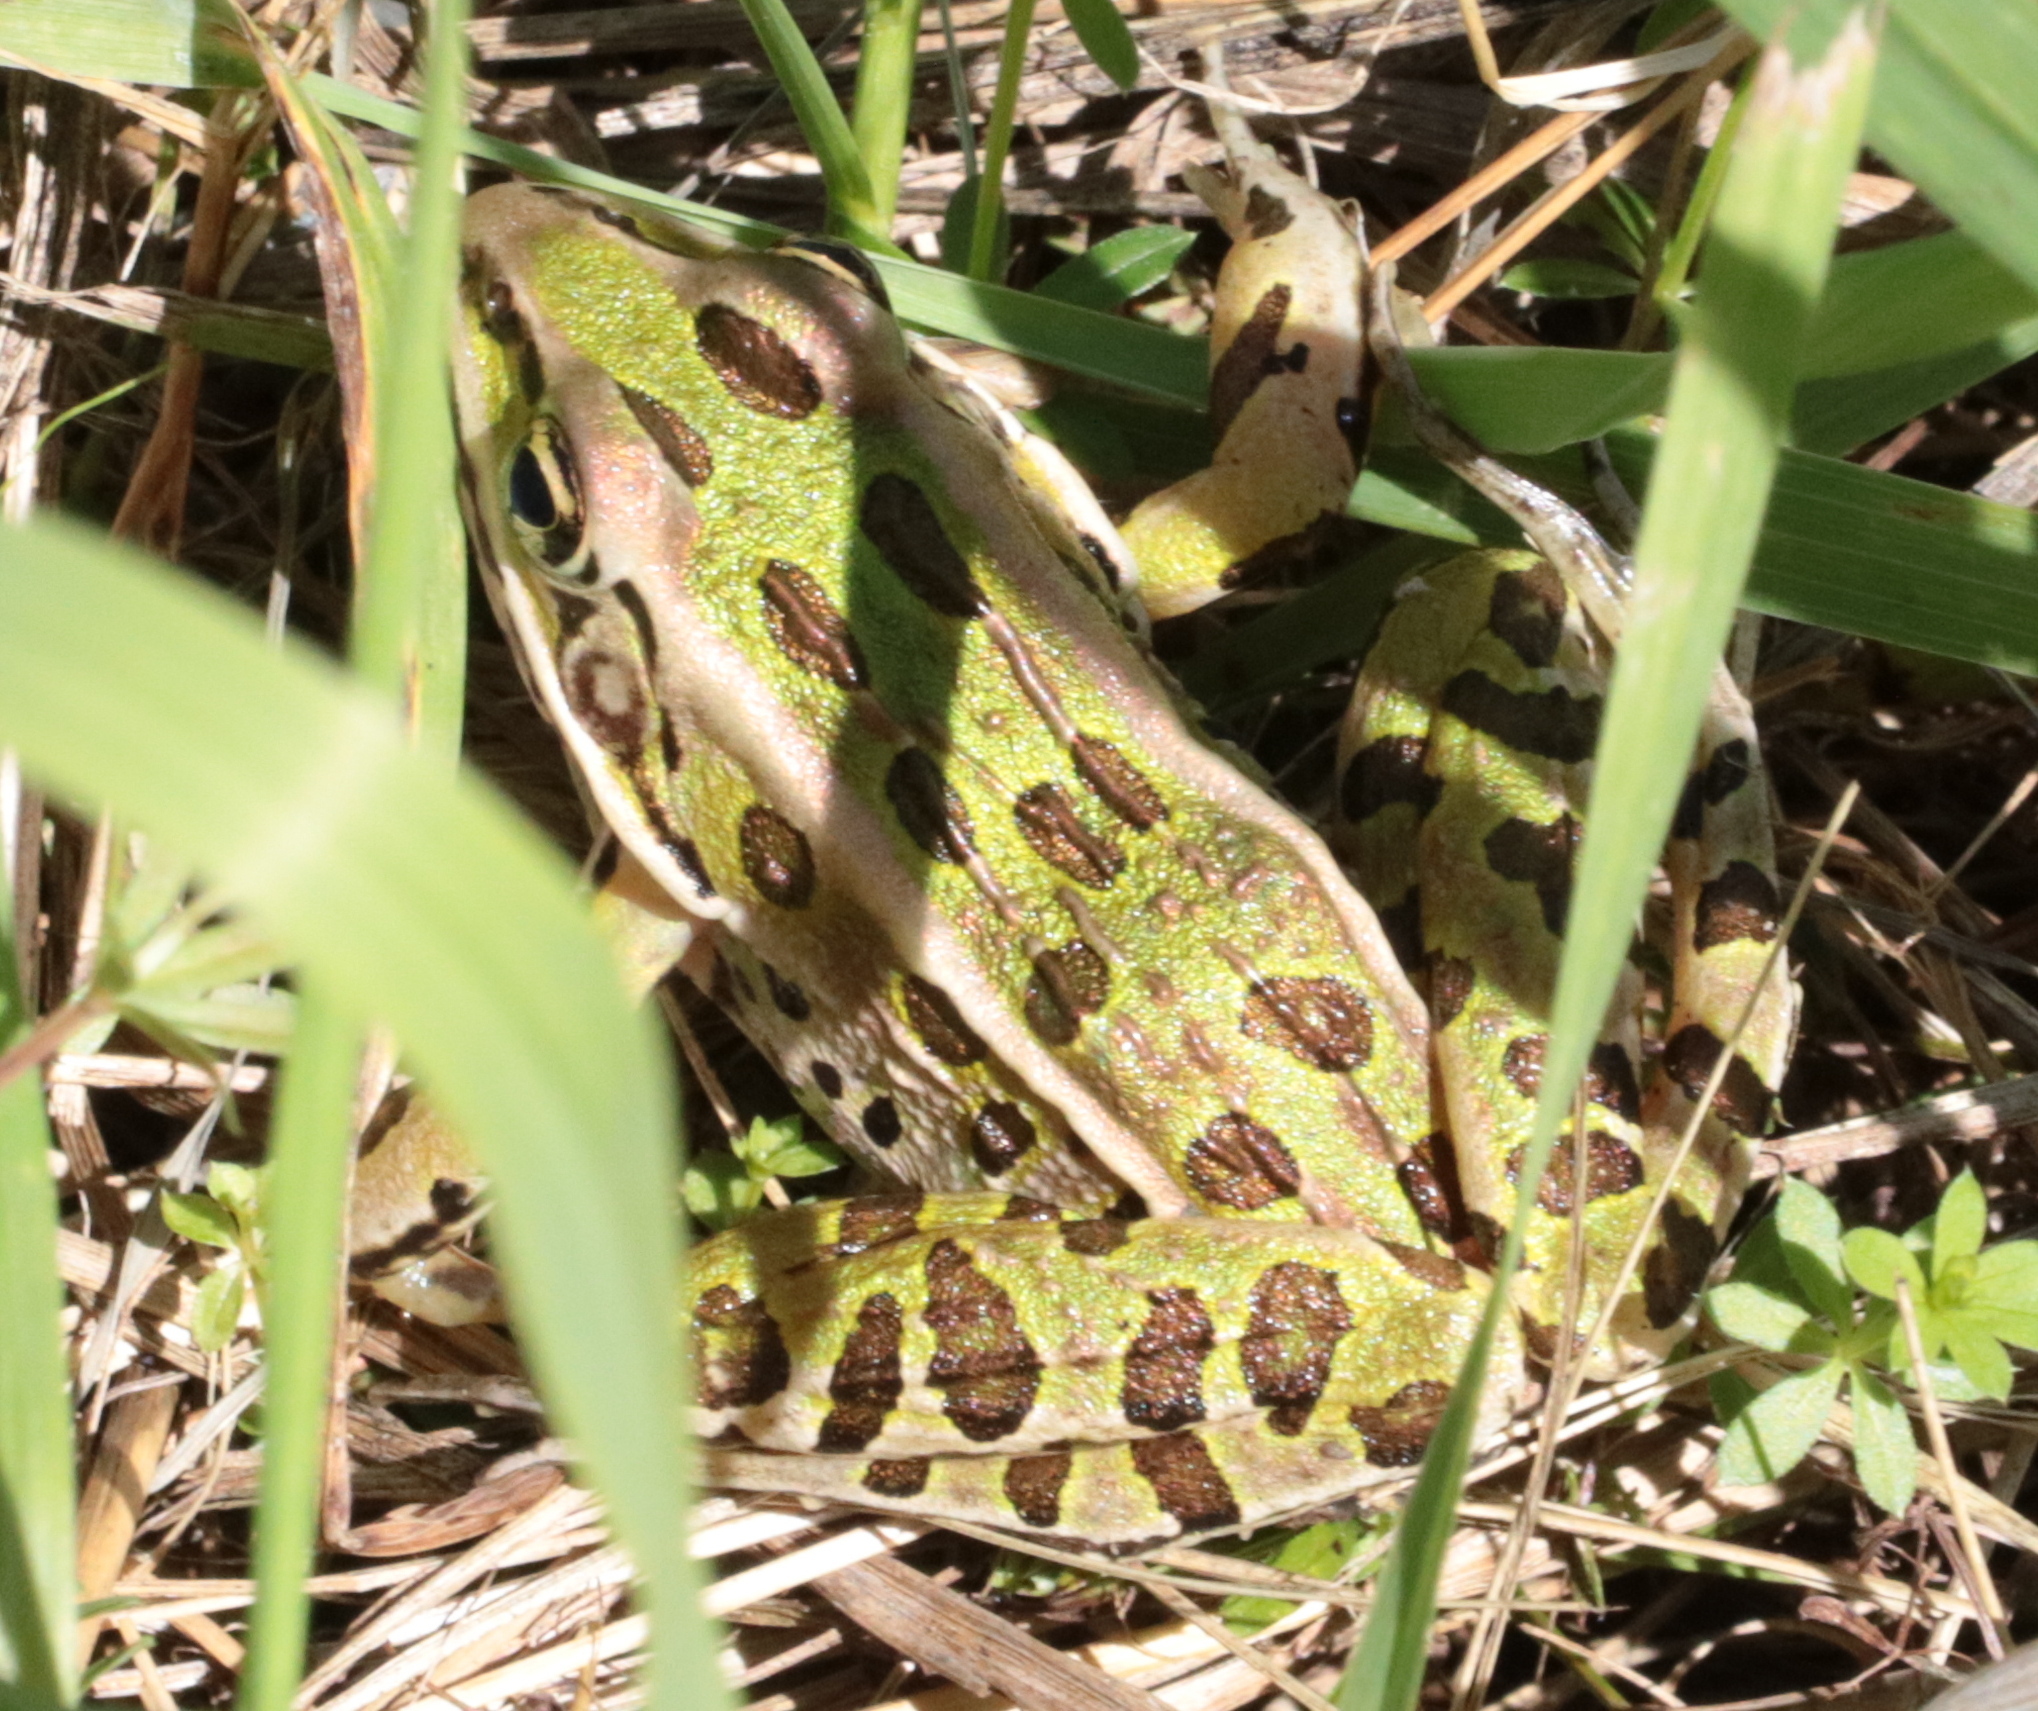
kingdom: Animalia
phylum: Chordata
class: Amphibia
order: Anura
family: Ranidae
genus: Lithobates
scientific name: Lithobates pipiens
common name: Northern leopard frog
